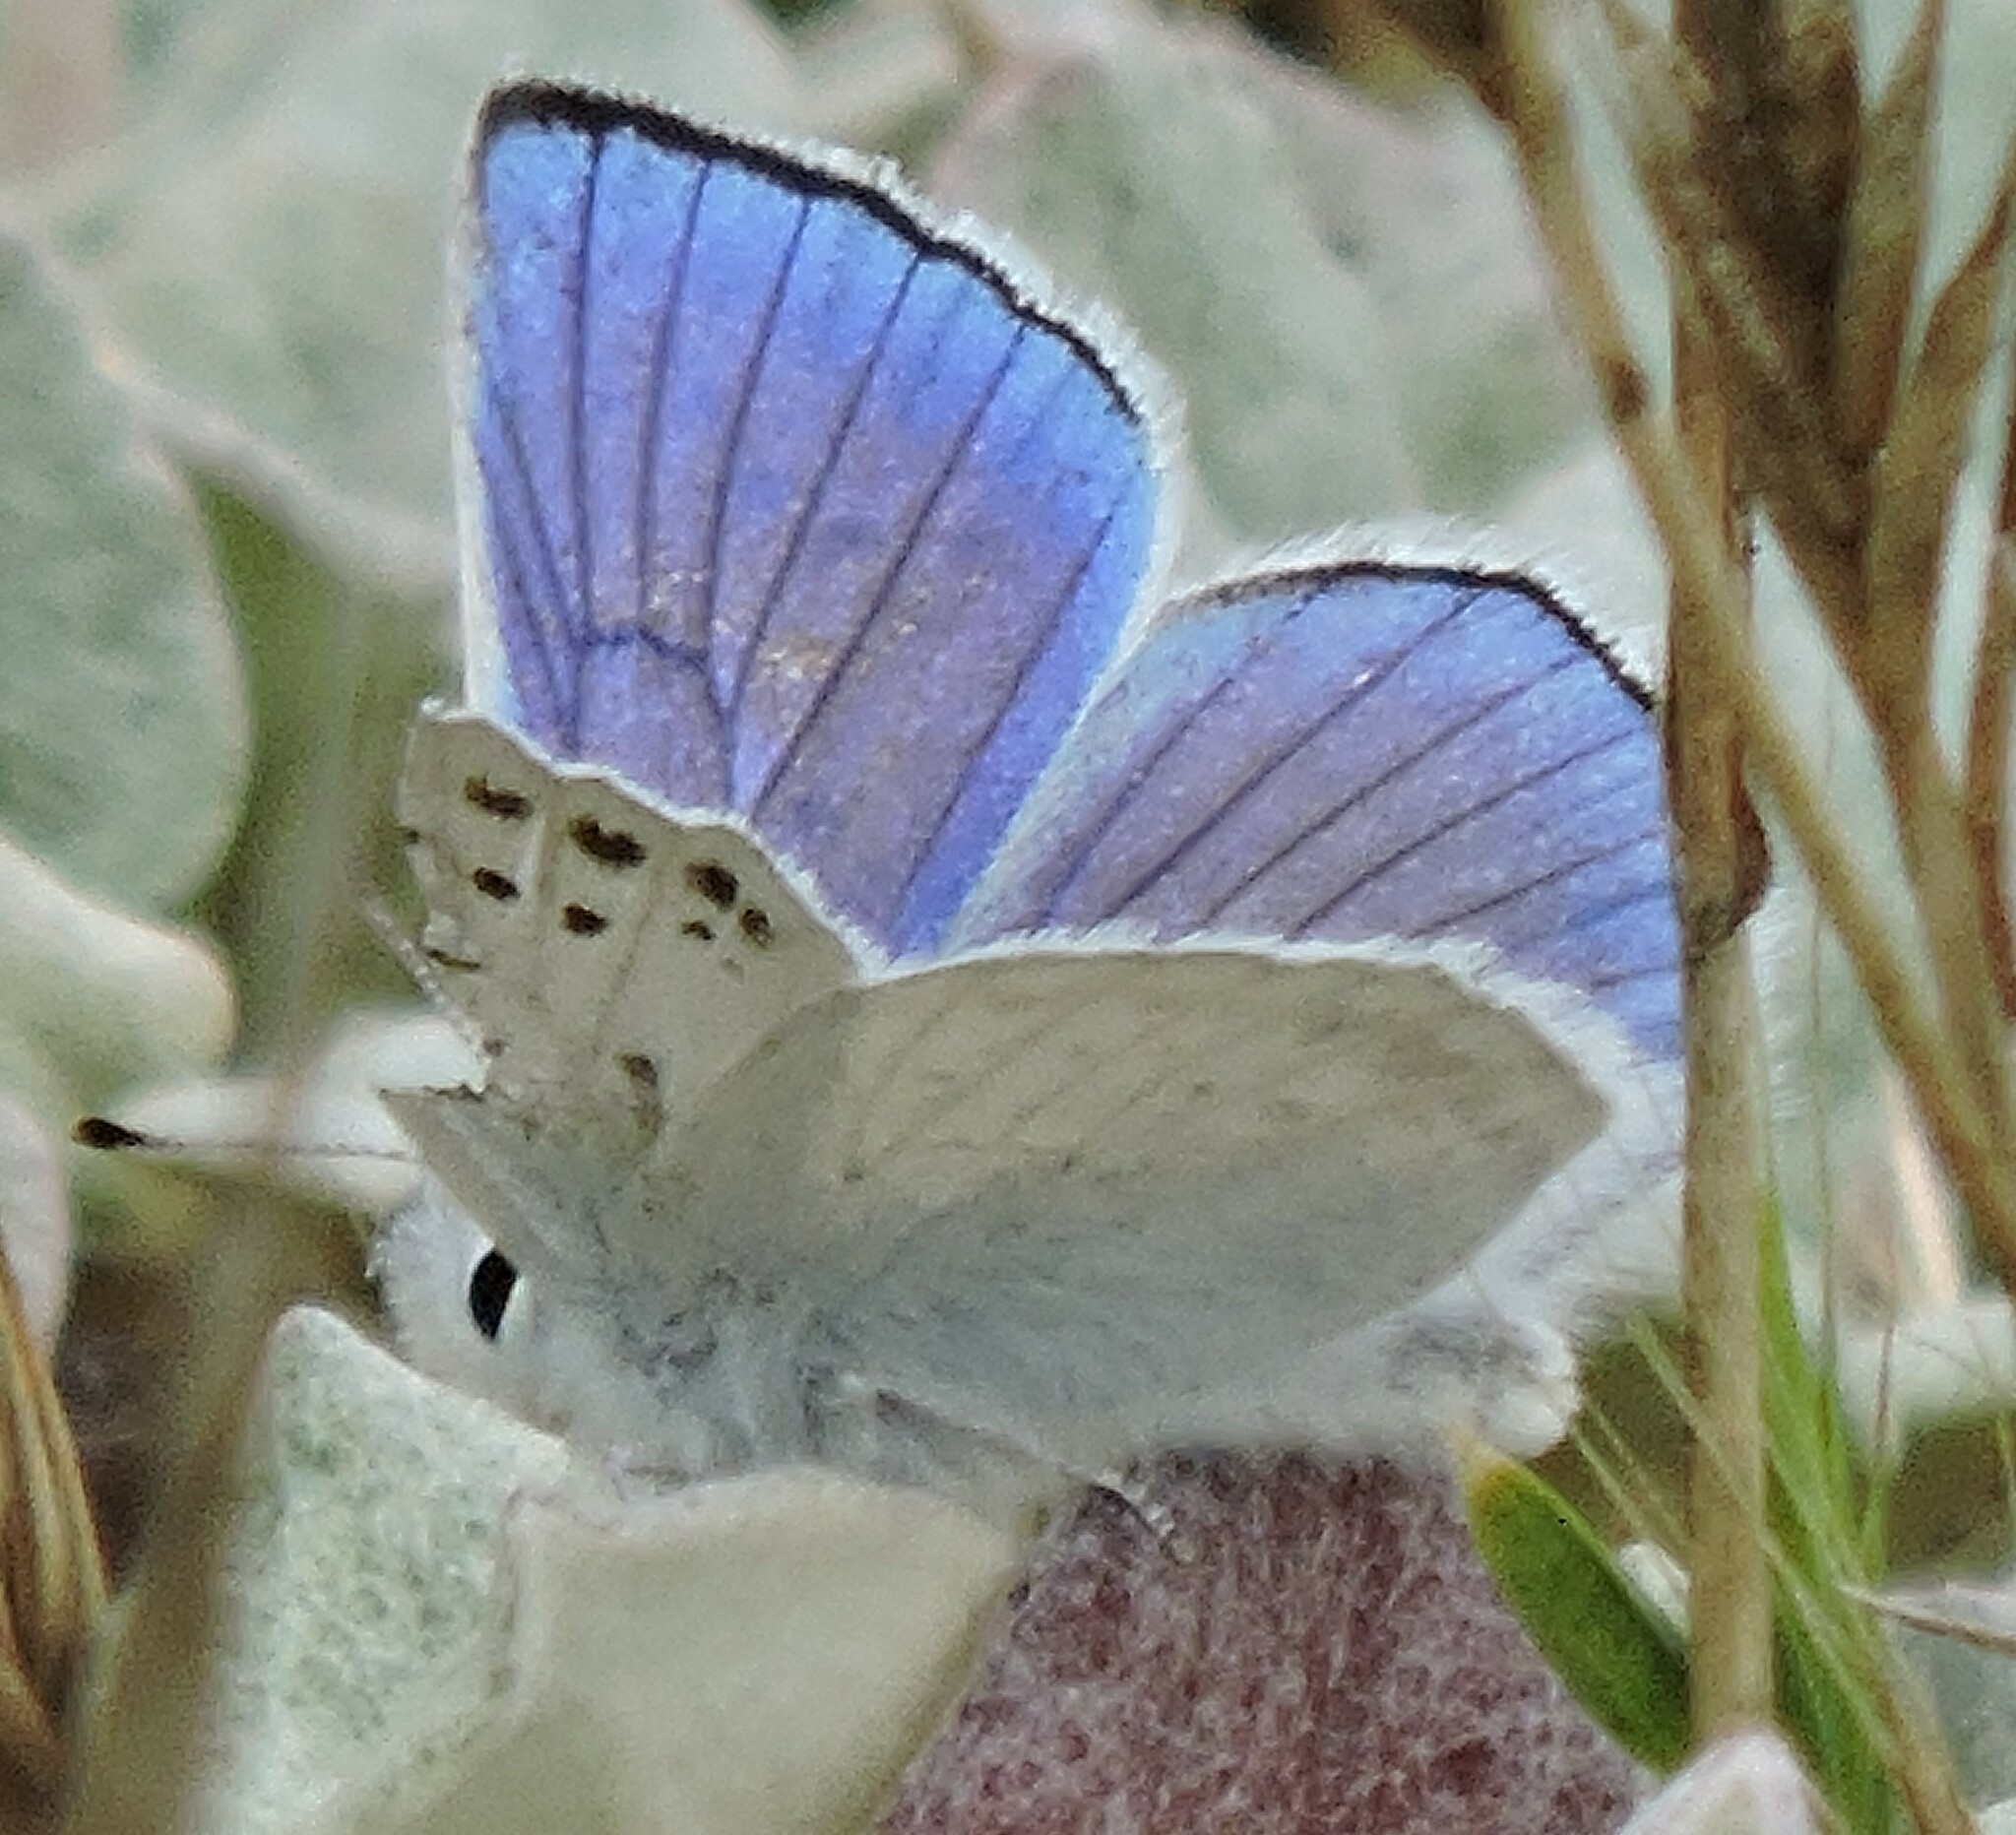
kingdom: Animalia
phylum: Arthropoda
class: Insecta
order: Lepidoptera
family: Lycaenidae
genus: Tharsalea
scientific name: Tharsalea heteronea
